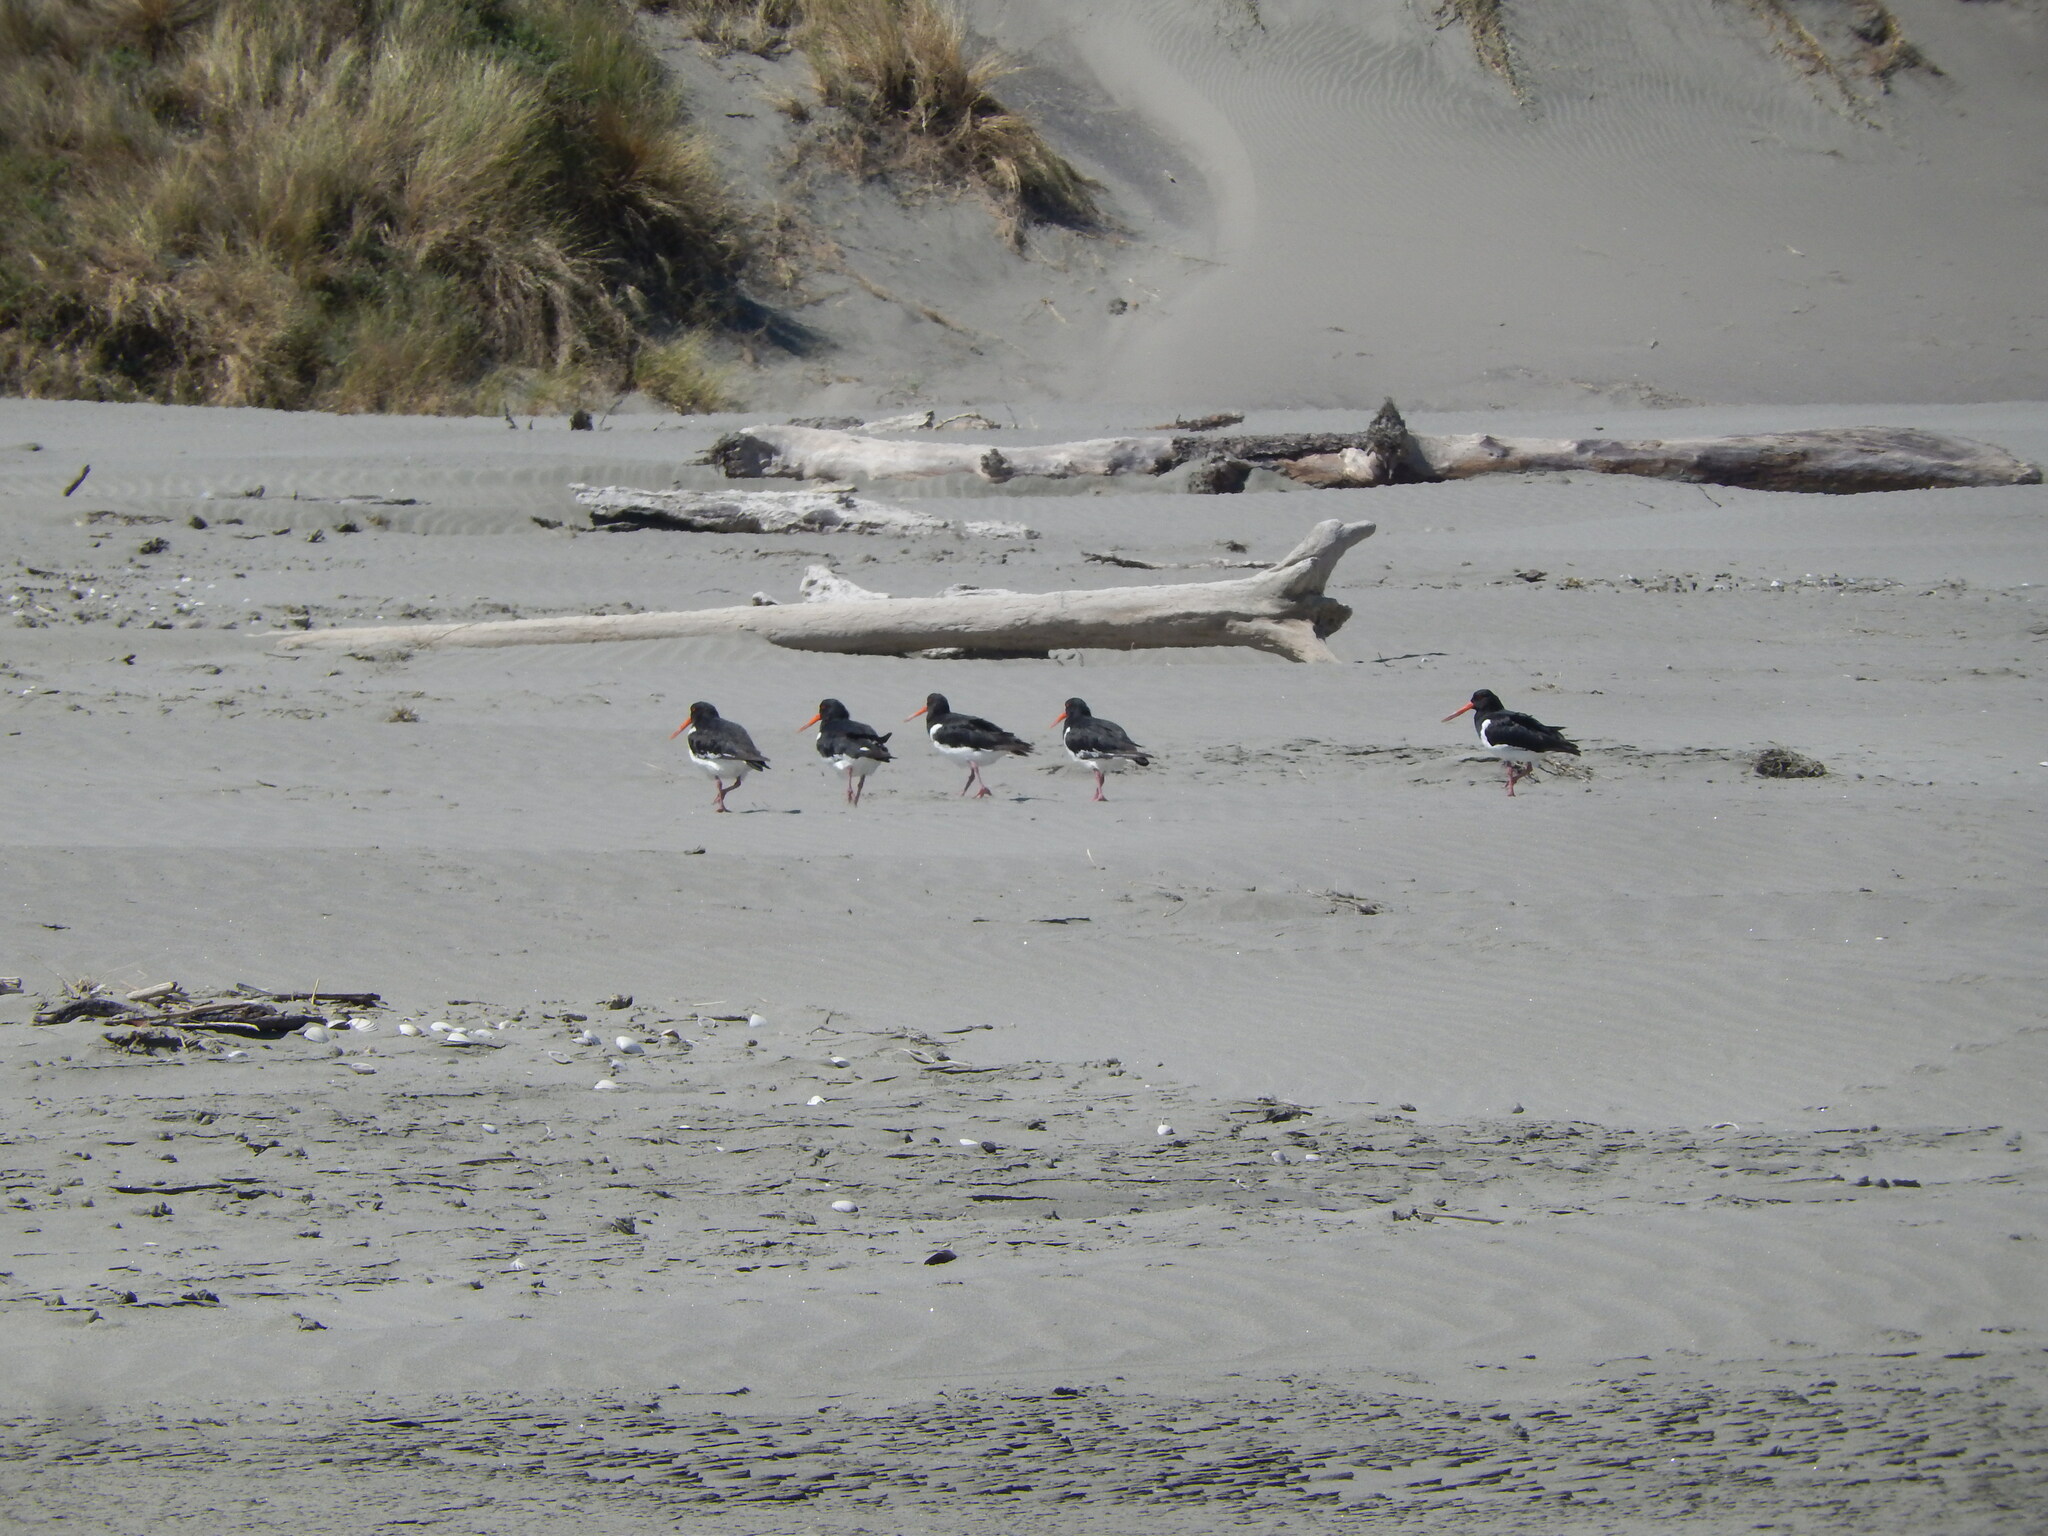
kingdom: Animalia
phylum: Chordata
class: Aves
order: Charadriiformes
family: Haematopodidae
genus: Haematopus
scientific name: Haematopus finschi
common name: South island oystercatcher
